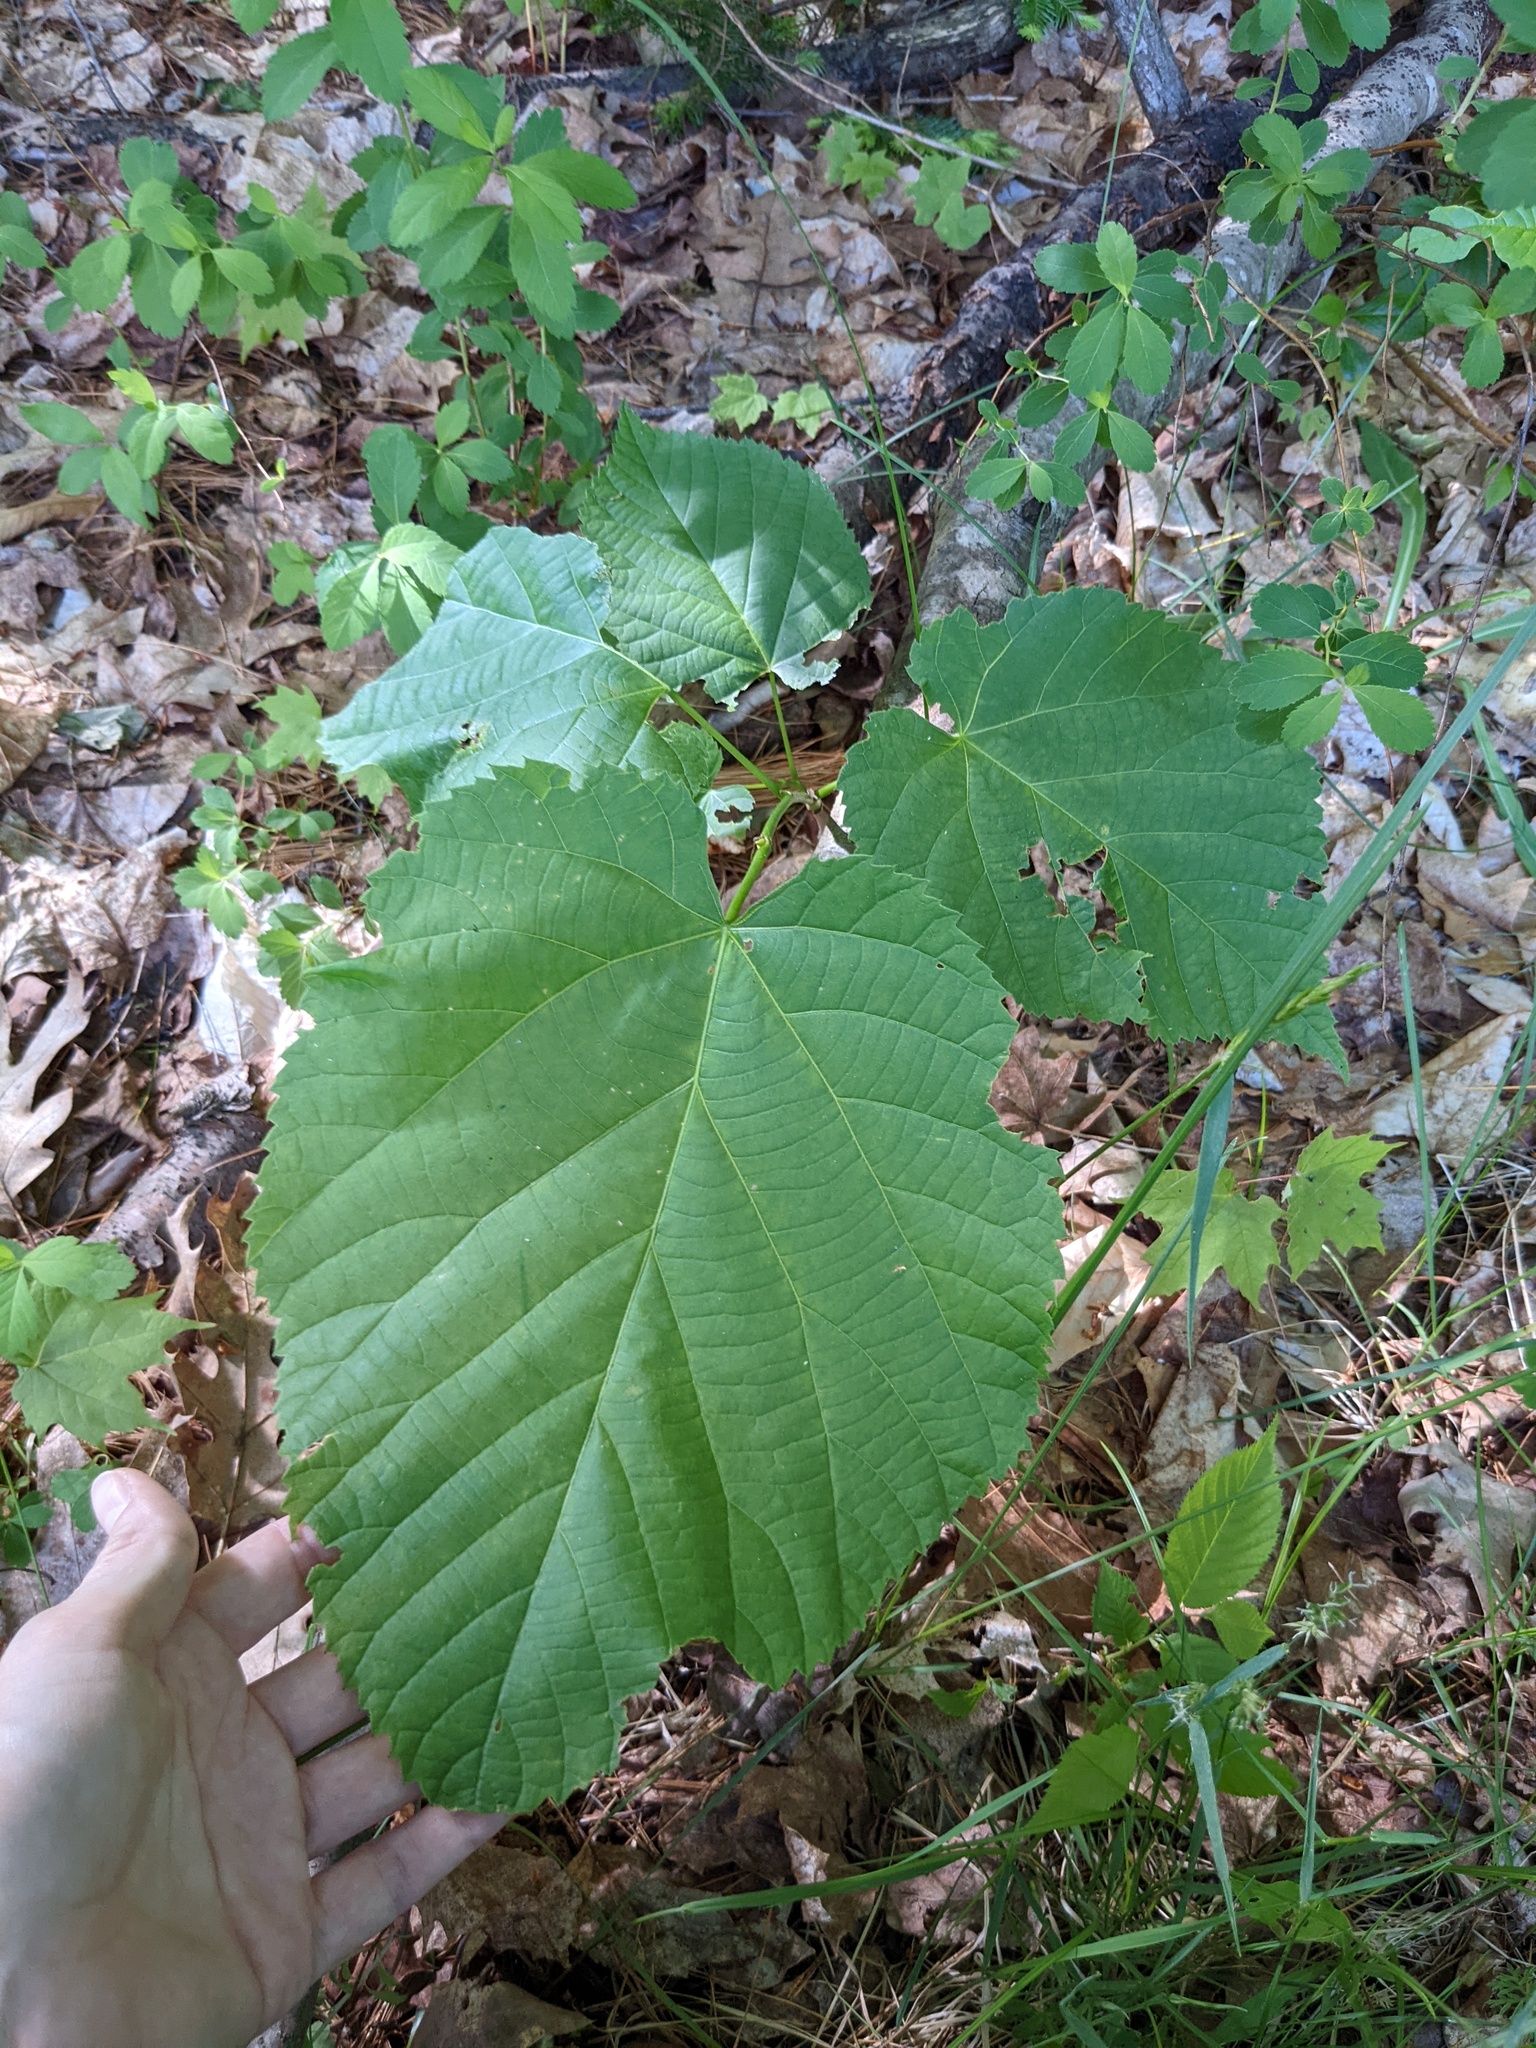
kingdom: Plantae
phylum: Tracheophyta
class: Magnoliopsida
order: Malvales
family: Malvaceae
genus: Tilia
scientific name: Tilia americana
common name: Basswood
